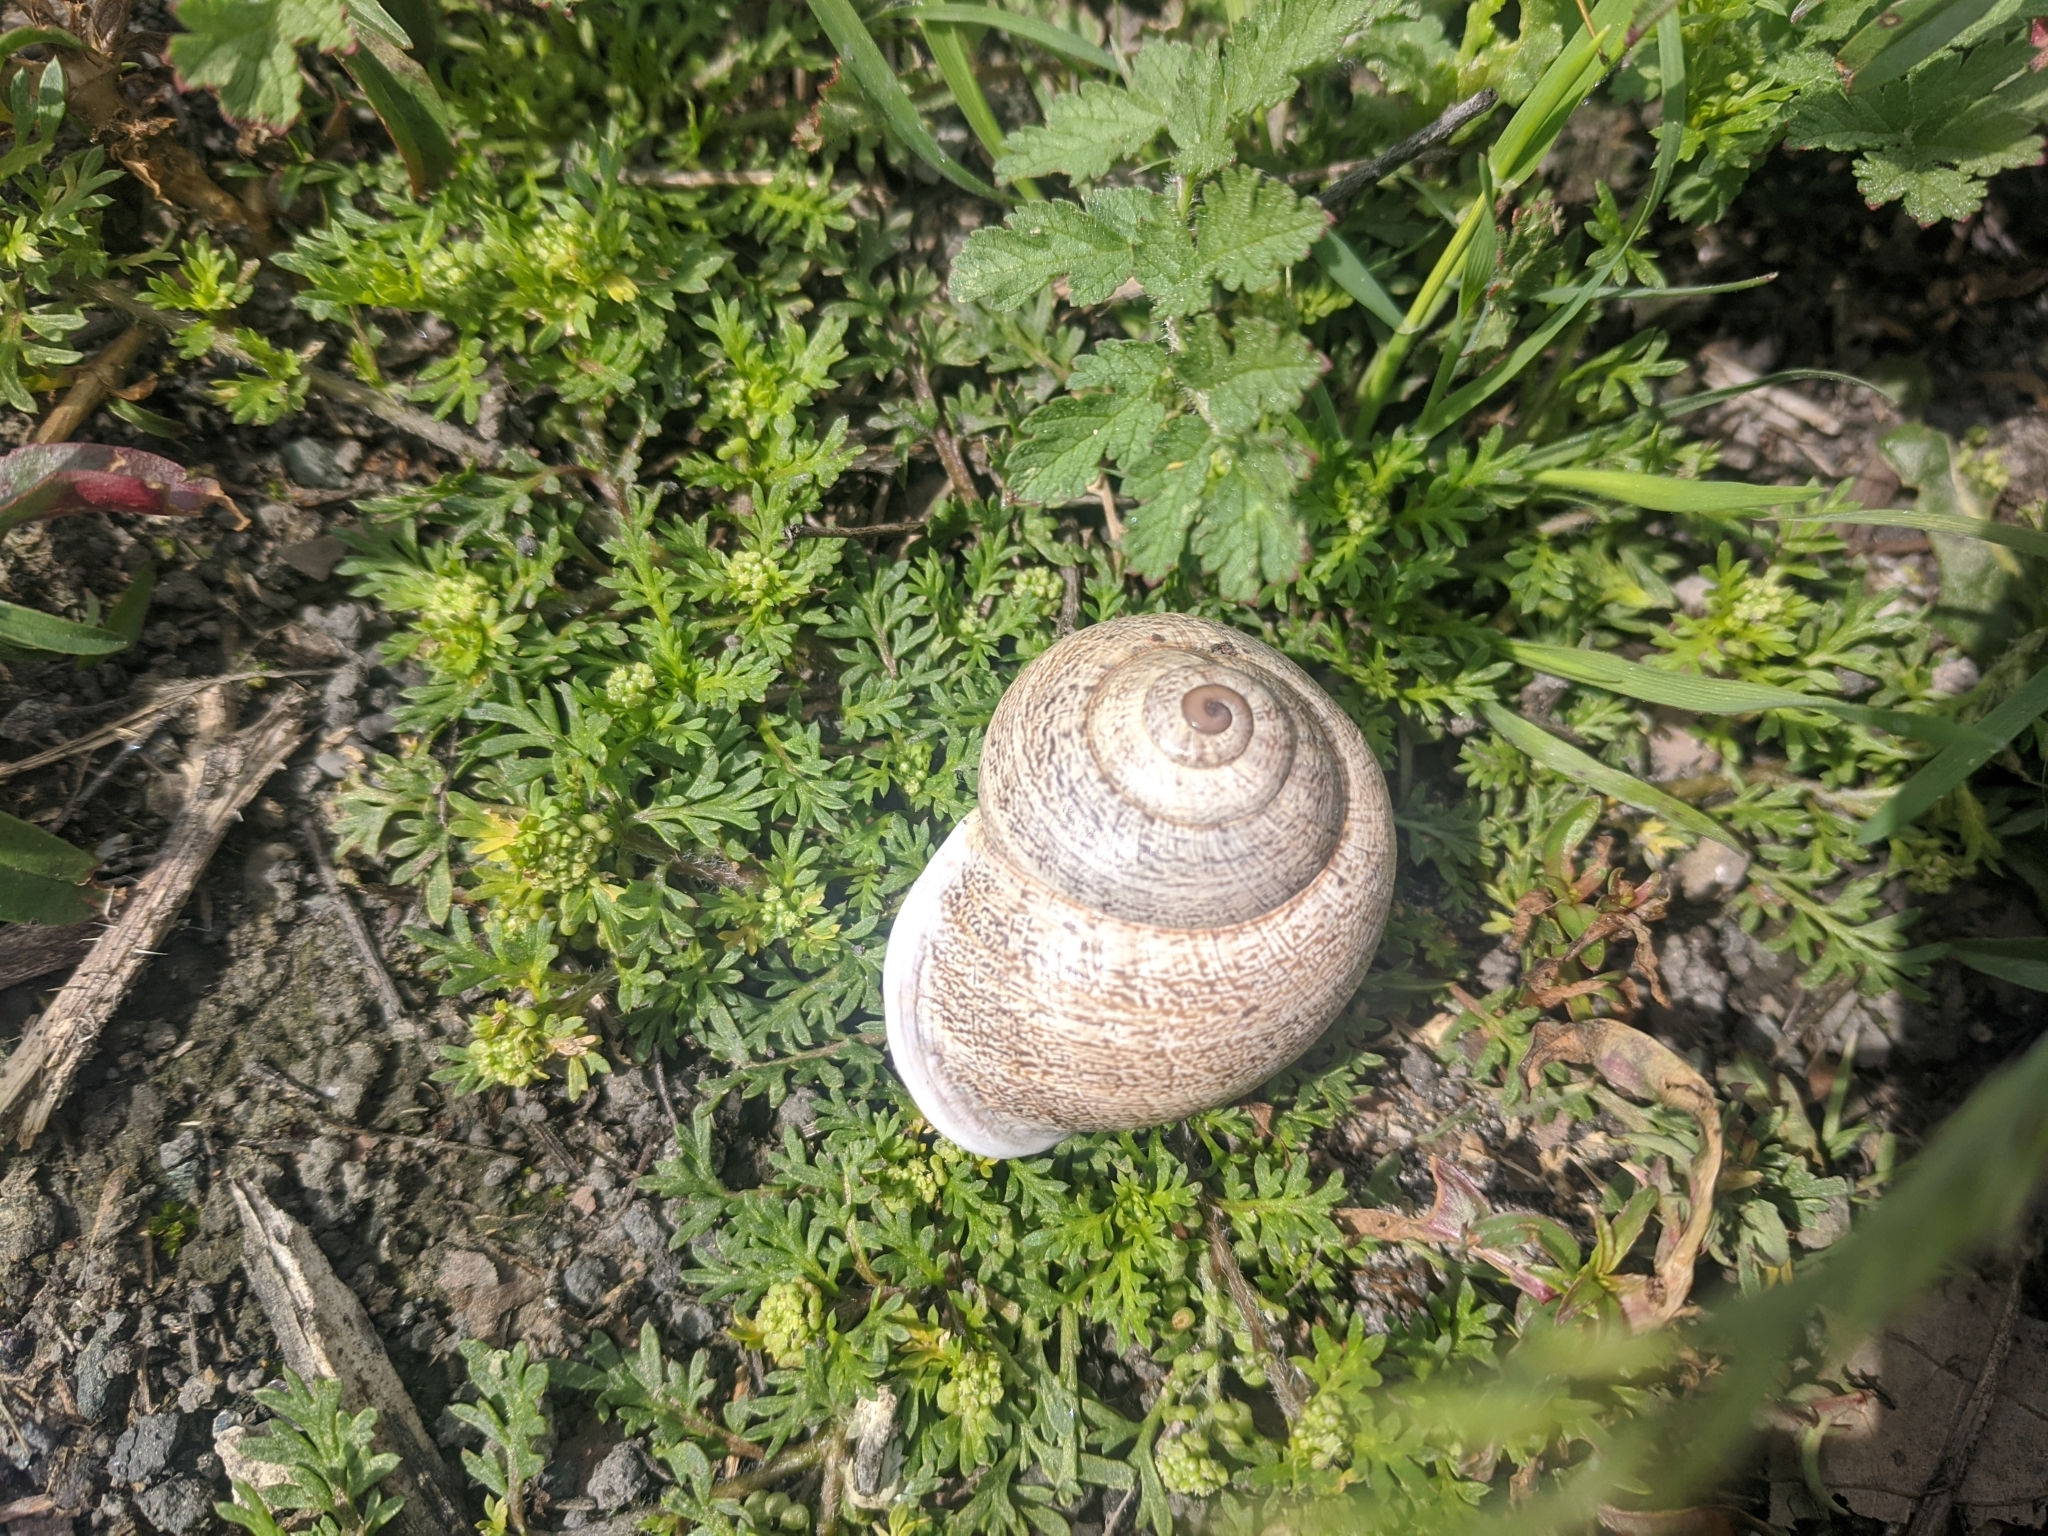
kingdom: Animalia
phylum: Mollusca
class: Gastropoda
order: Stylommatophora
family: Helicidae
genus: Otala
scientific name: Otala lactea
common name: Milk snail
